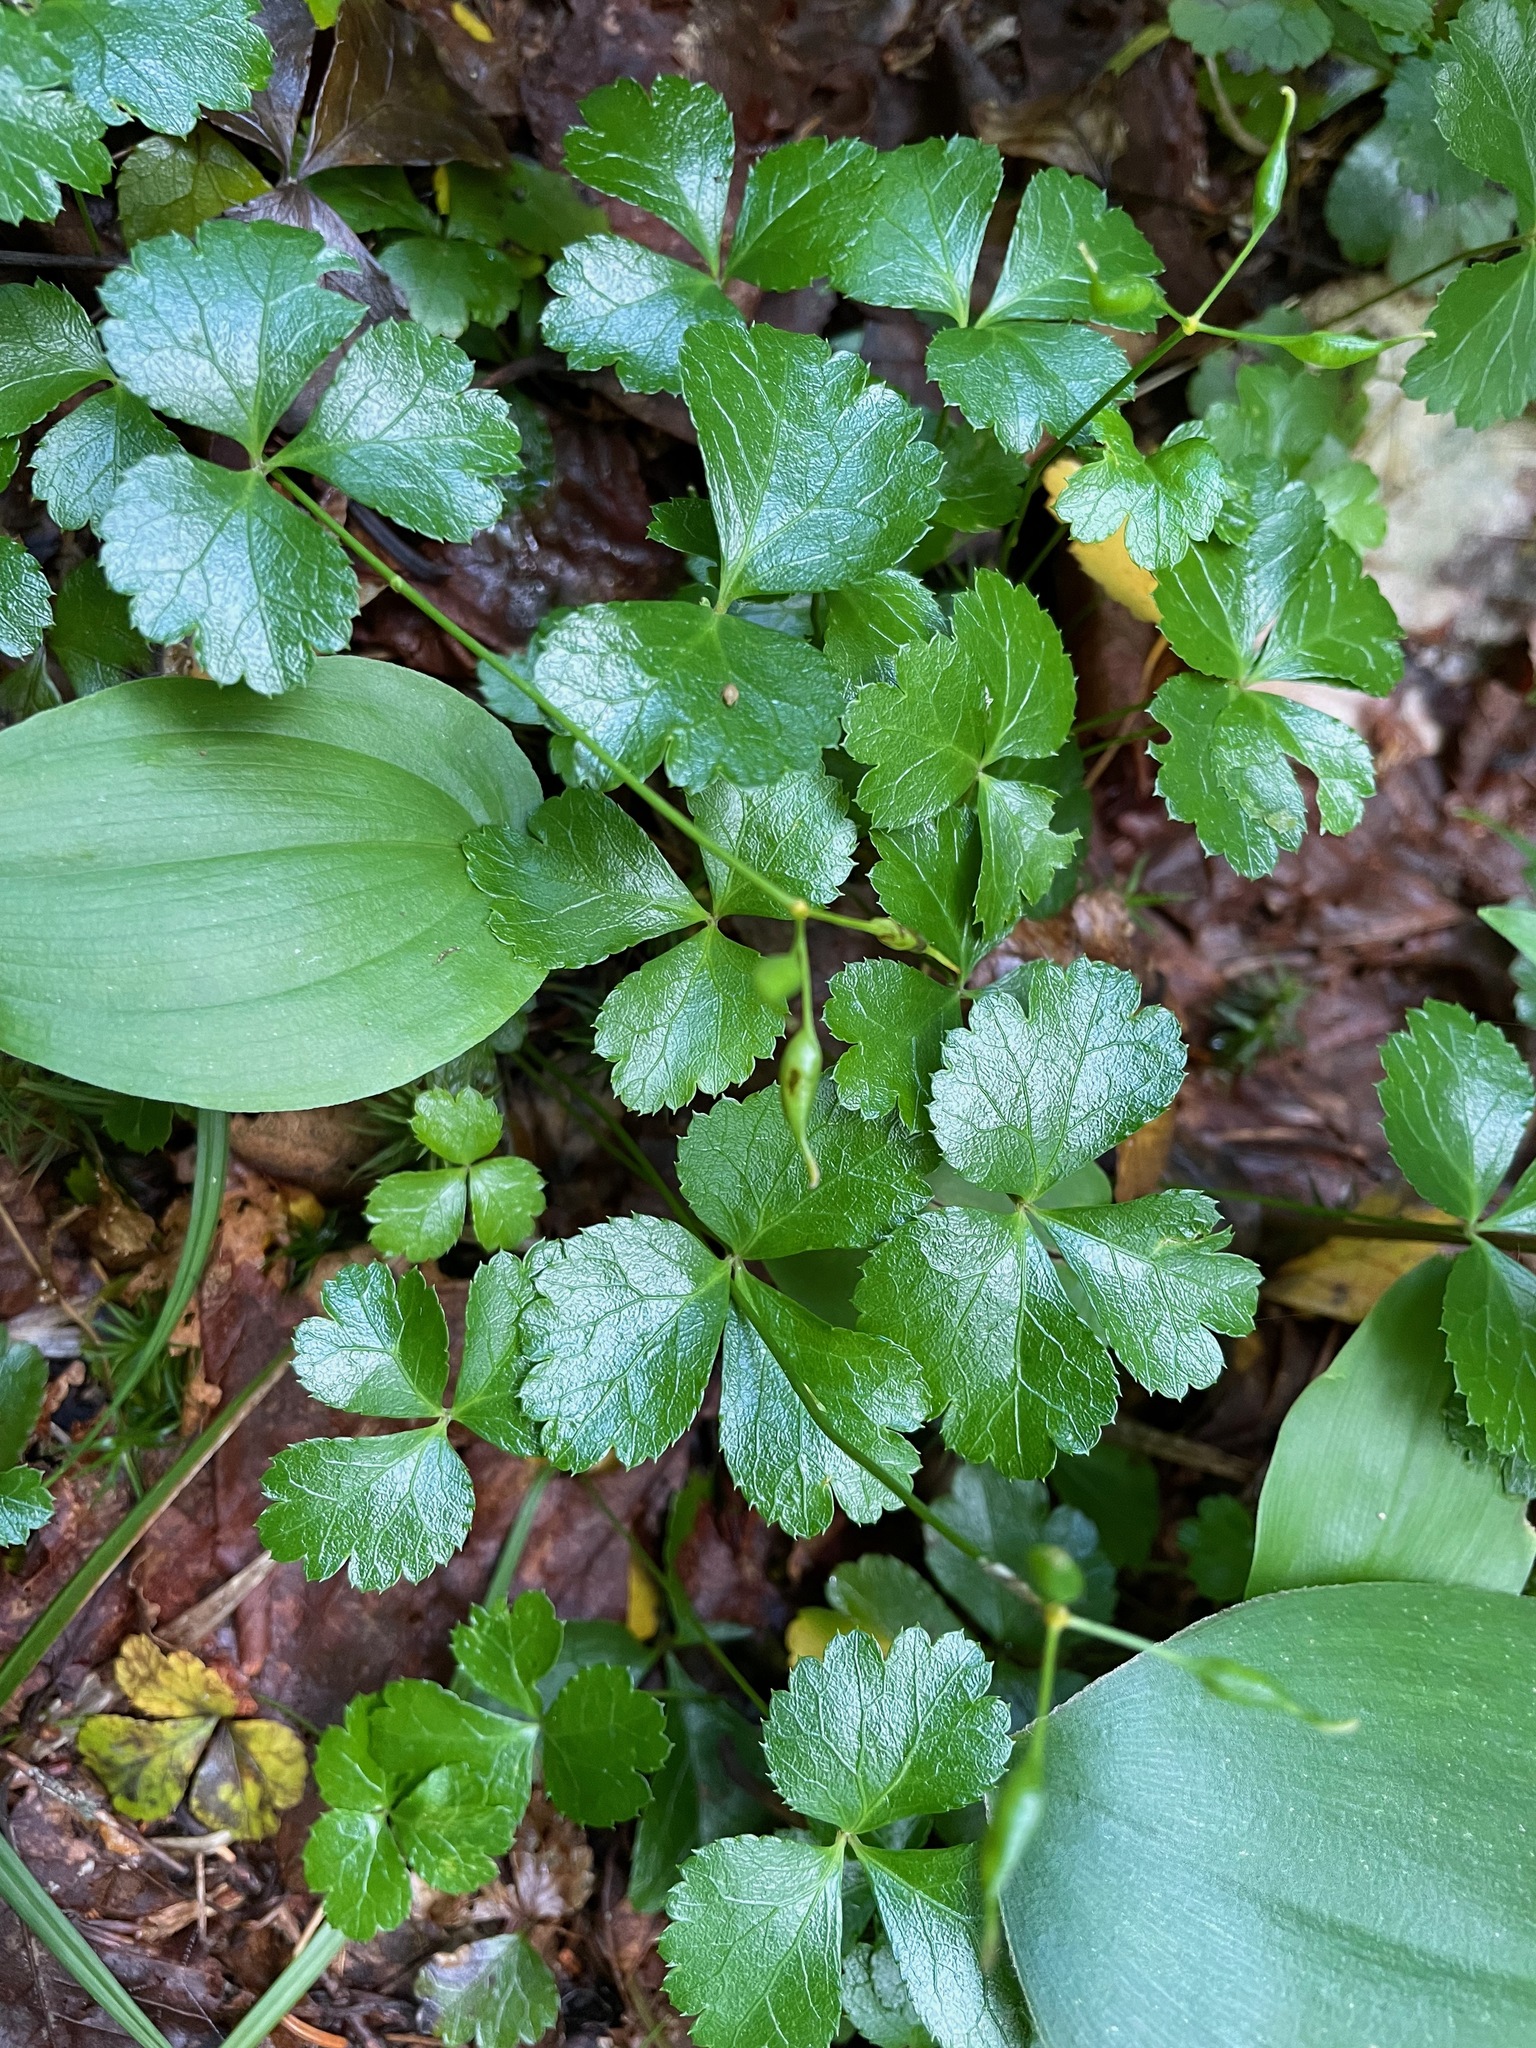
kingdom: Plantae
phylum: Tracheophyta
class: Magnoliopsida
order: Ranunculales
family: Ranunculaceae
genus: Coptis
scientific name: Coptis trifolia
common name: Canker-root
